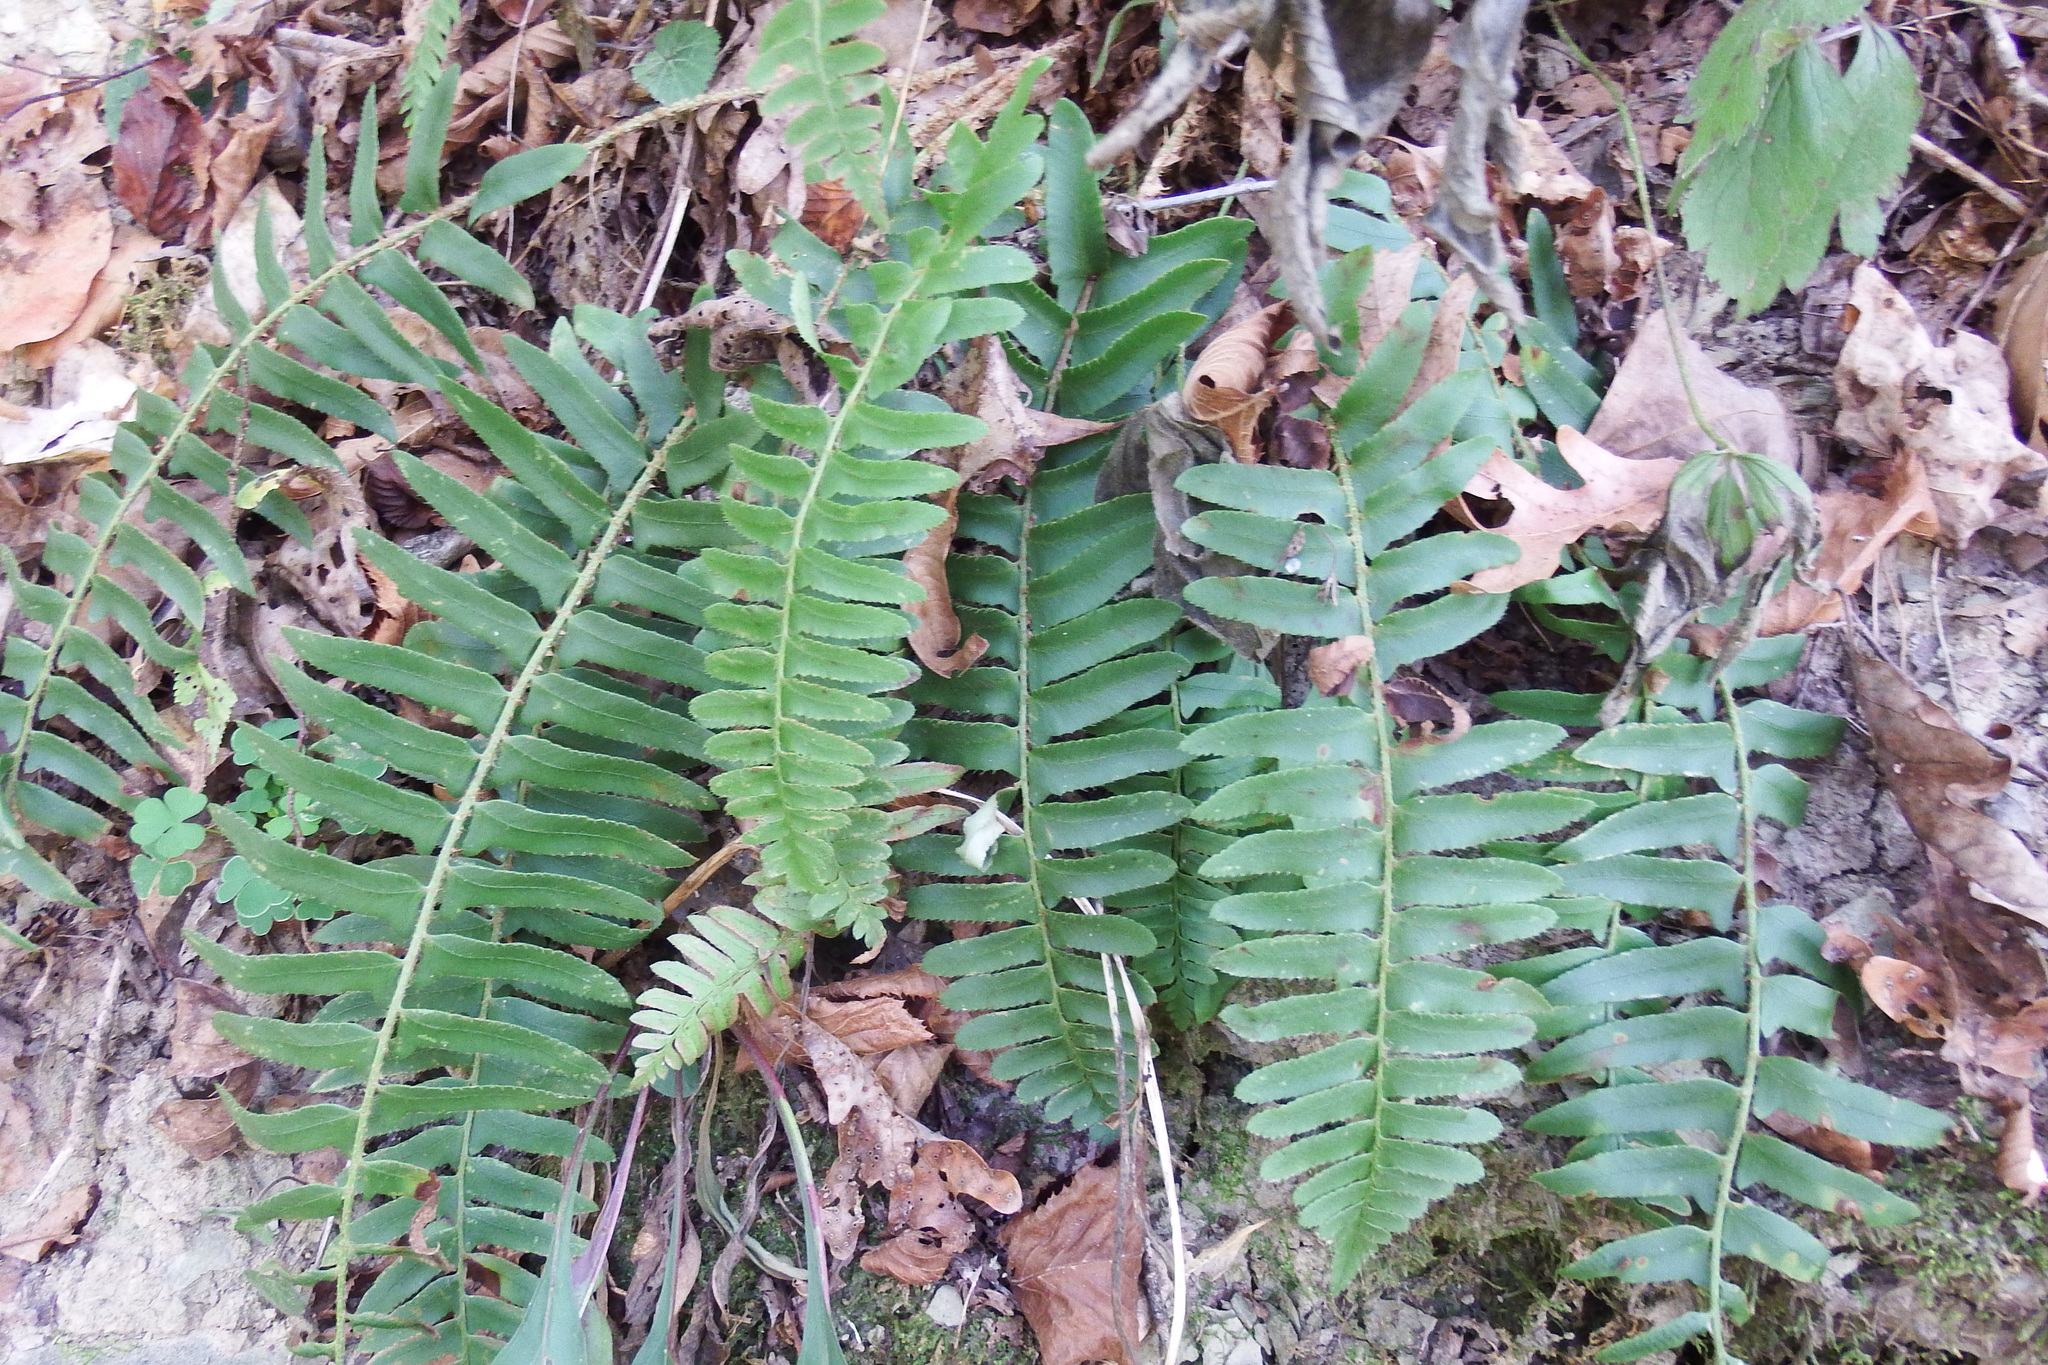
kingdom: Plantae
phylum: Tracheophyta
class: Polypodiopsida
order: Polypodiales
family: Dryopteridaceae
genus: Polystichum
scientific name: Polystichum acrostichoides
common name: Christmas fern
